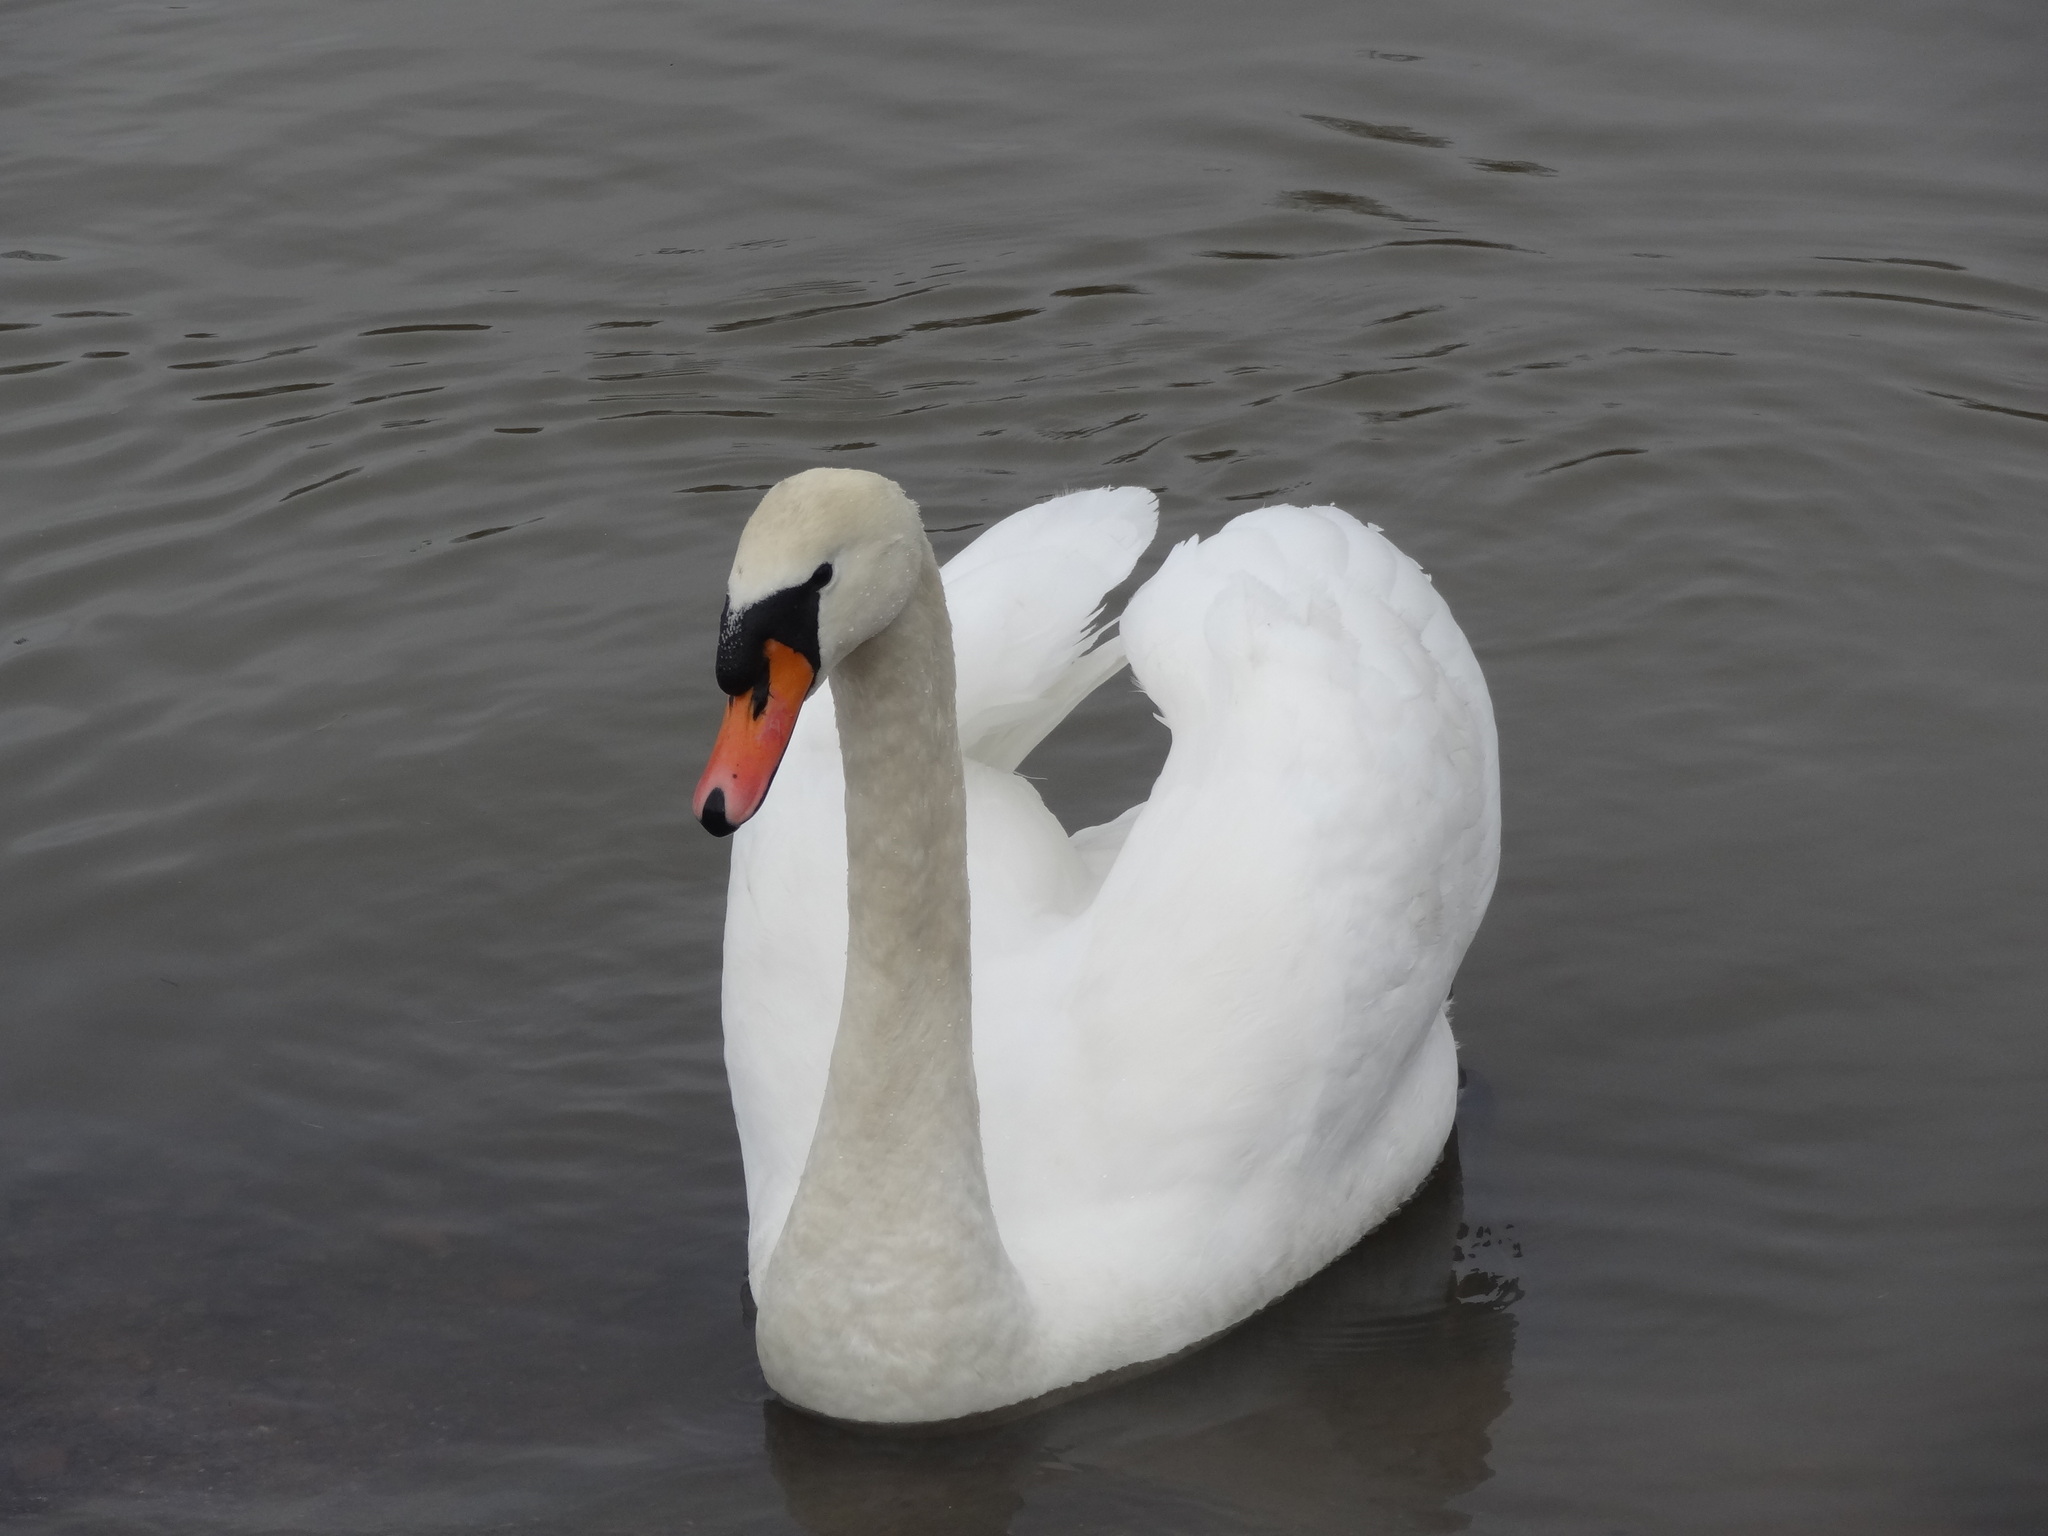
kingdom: Animalia
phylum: Chordata
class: Aves
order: Anseriformes
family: Anatidae
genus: Cygnus
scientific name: Cygnus olor
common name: Mute swan
